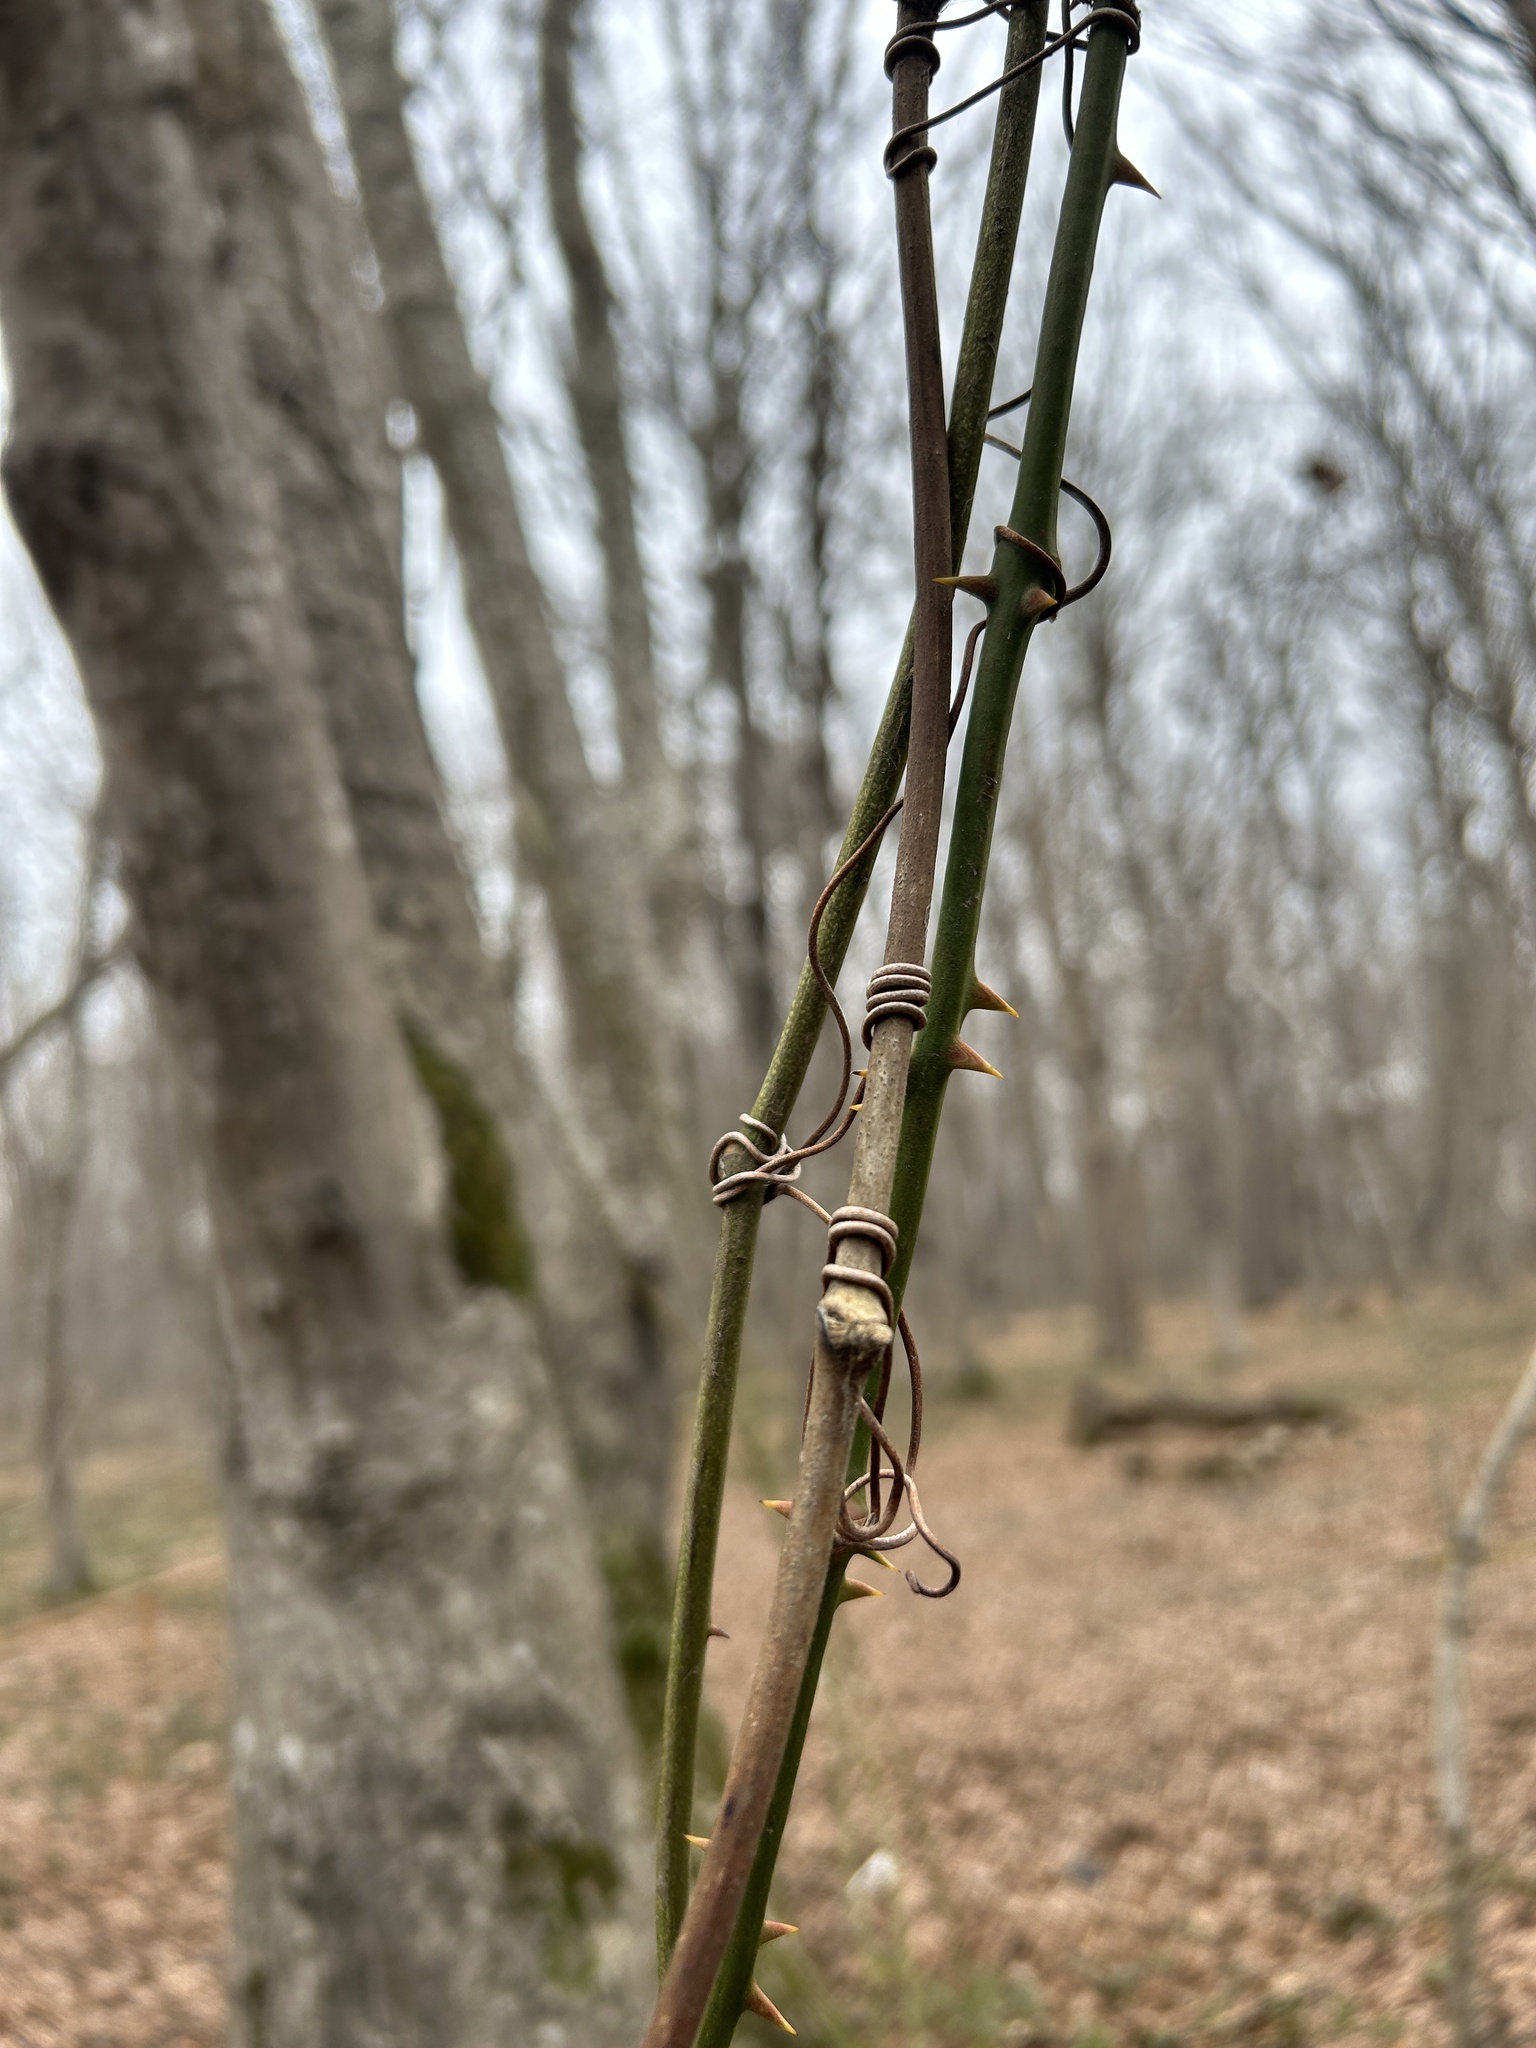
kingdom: Plantae
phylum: Tracheophyta
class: Liliopsida
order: Liliales
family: Smilacaceae
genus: Smilax
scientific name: Smilax excelsa
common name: Larger smilax
